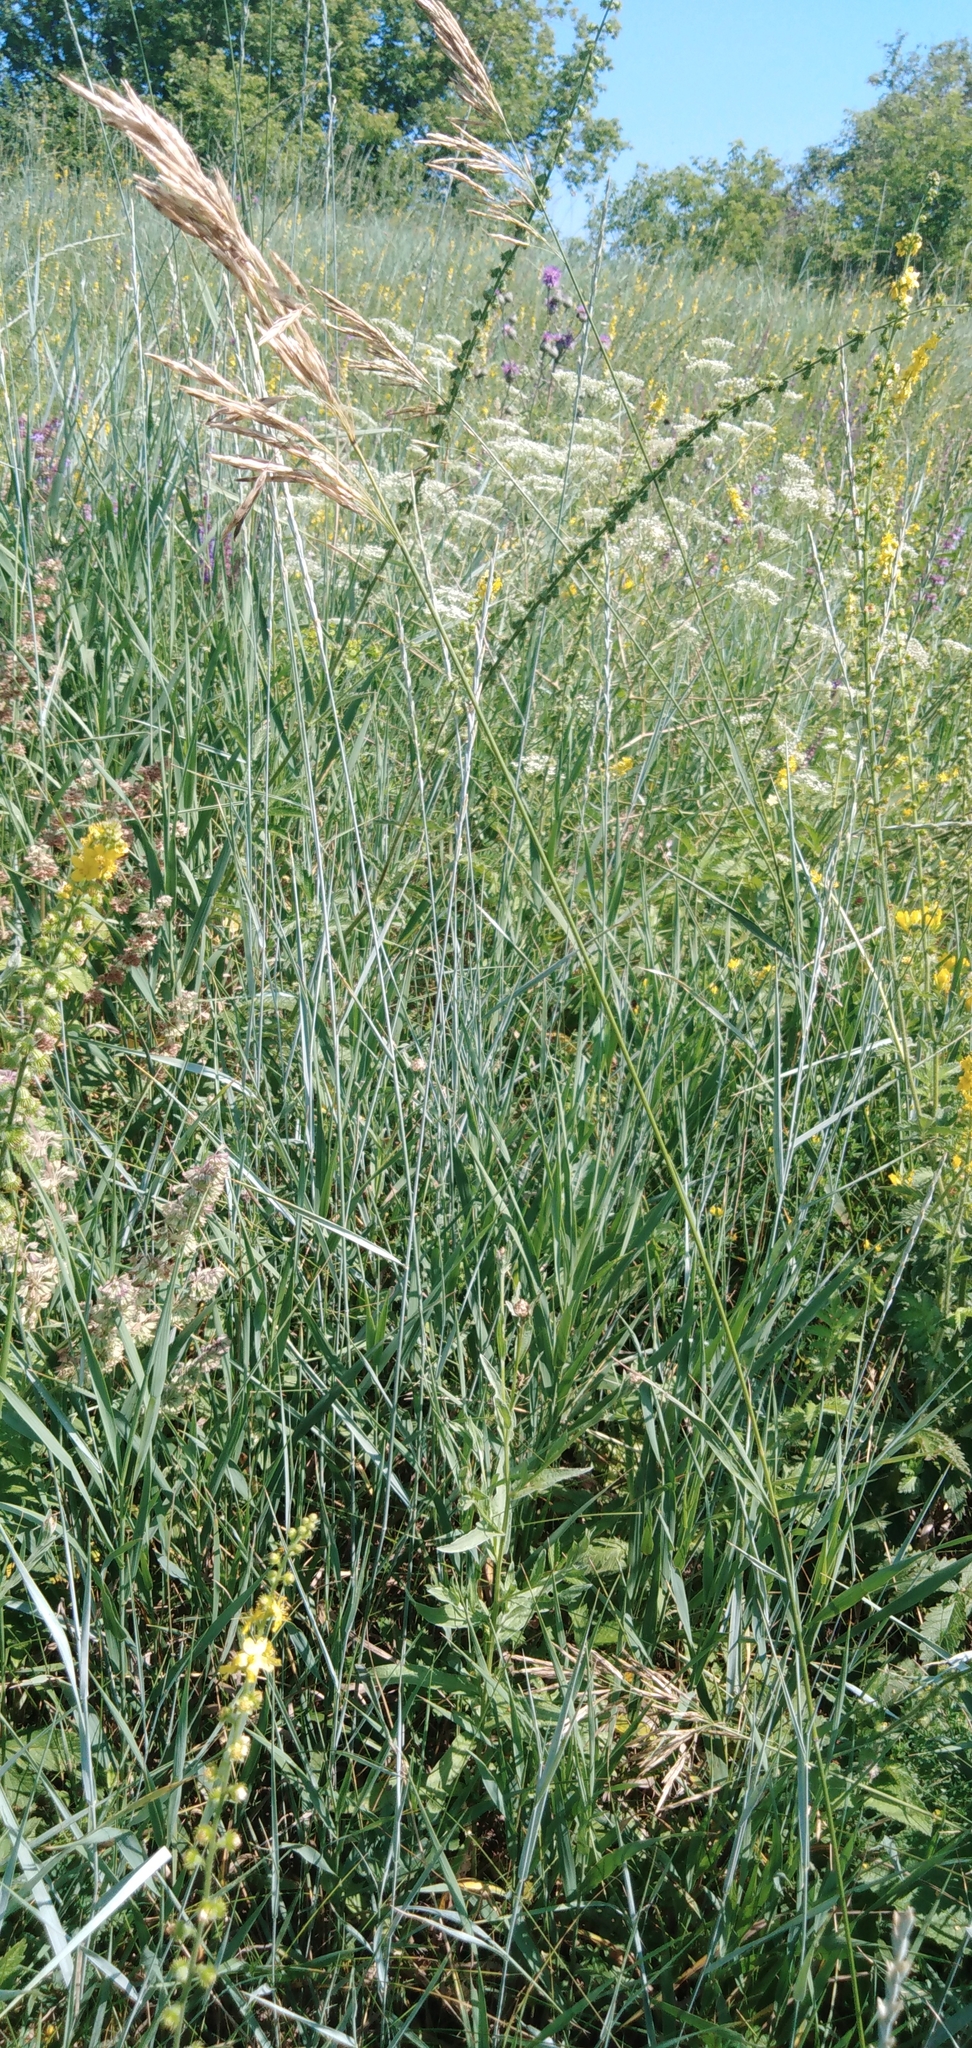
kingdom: Plantae
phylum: Tracheophyta
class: Liliopsida
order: Poales
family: Poaceae
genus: Thinopyrum
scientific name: Thinopyrum intermedium
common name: Intermediate wheatgrass
